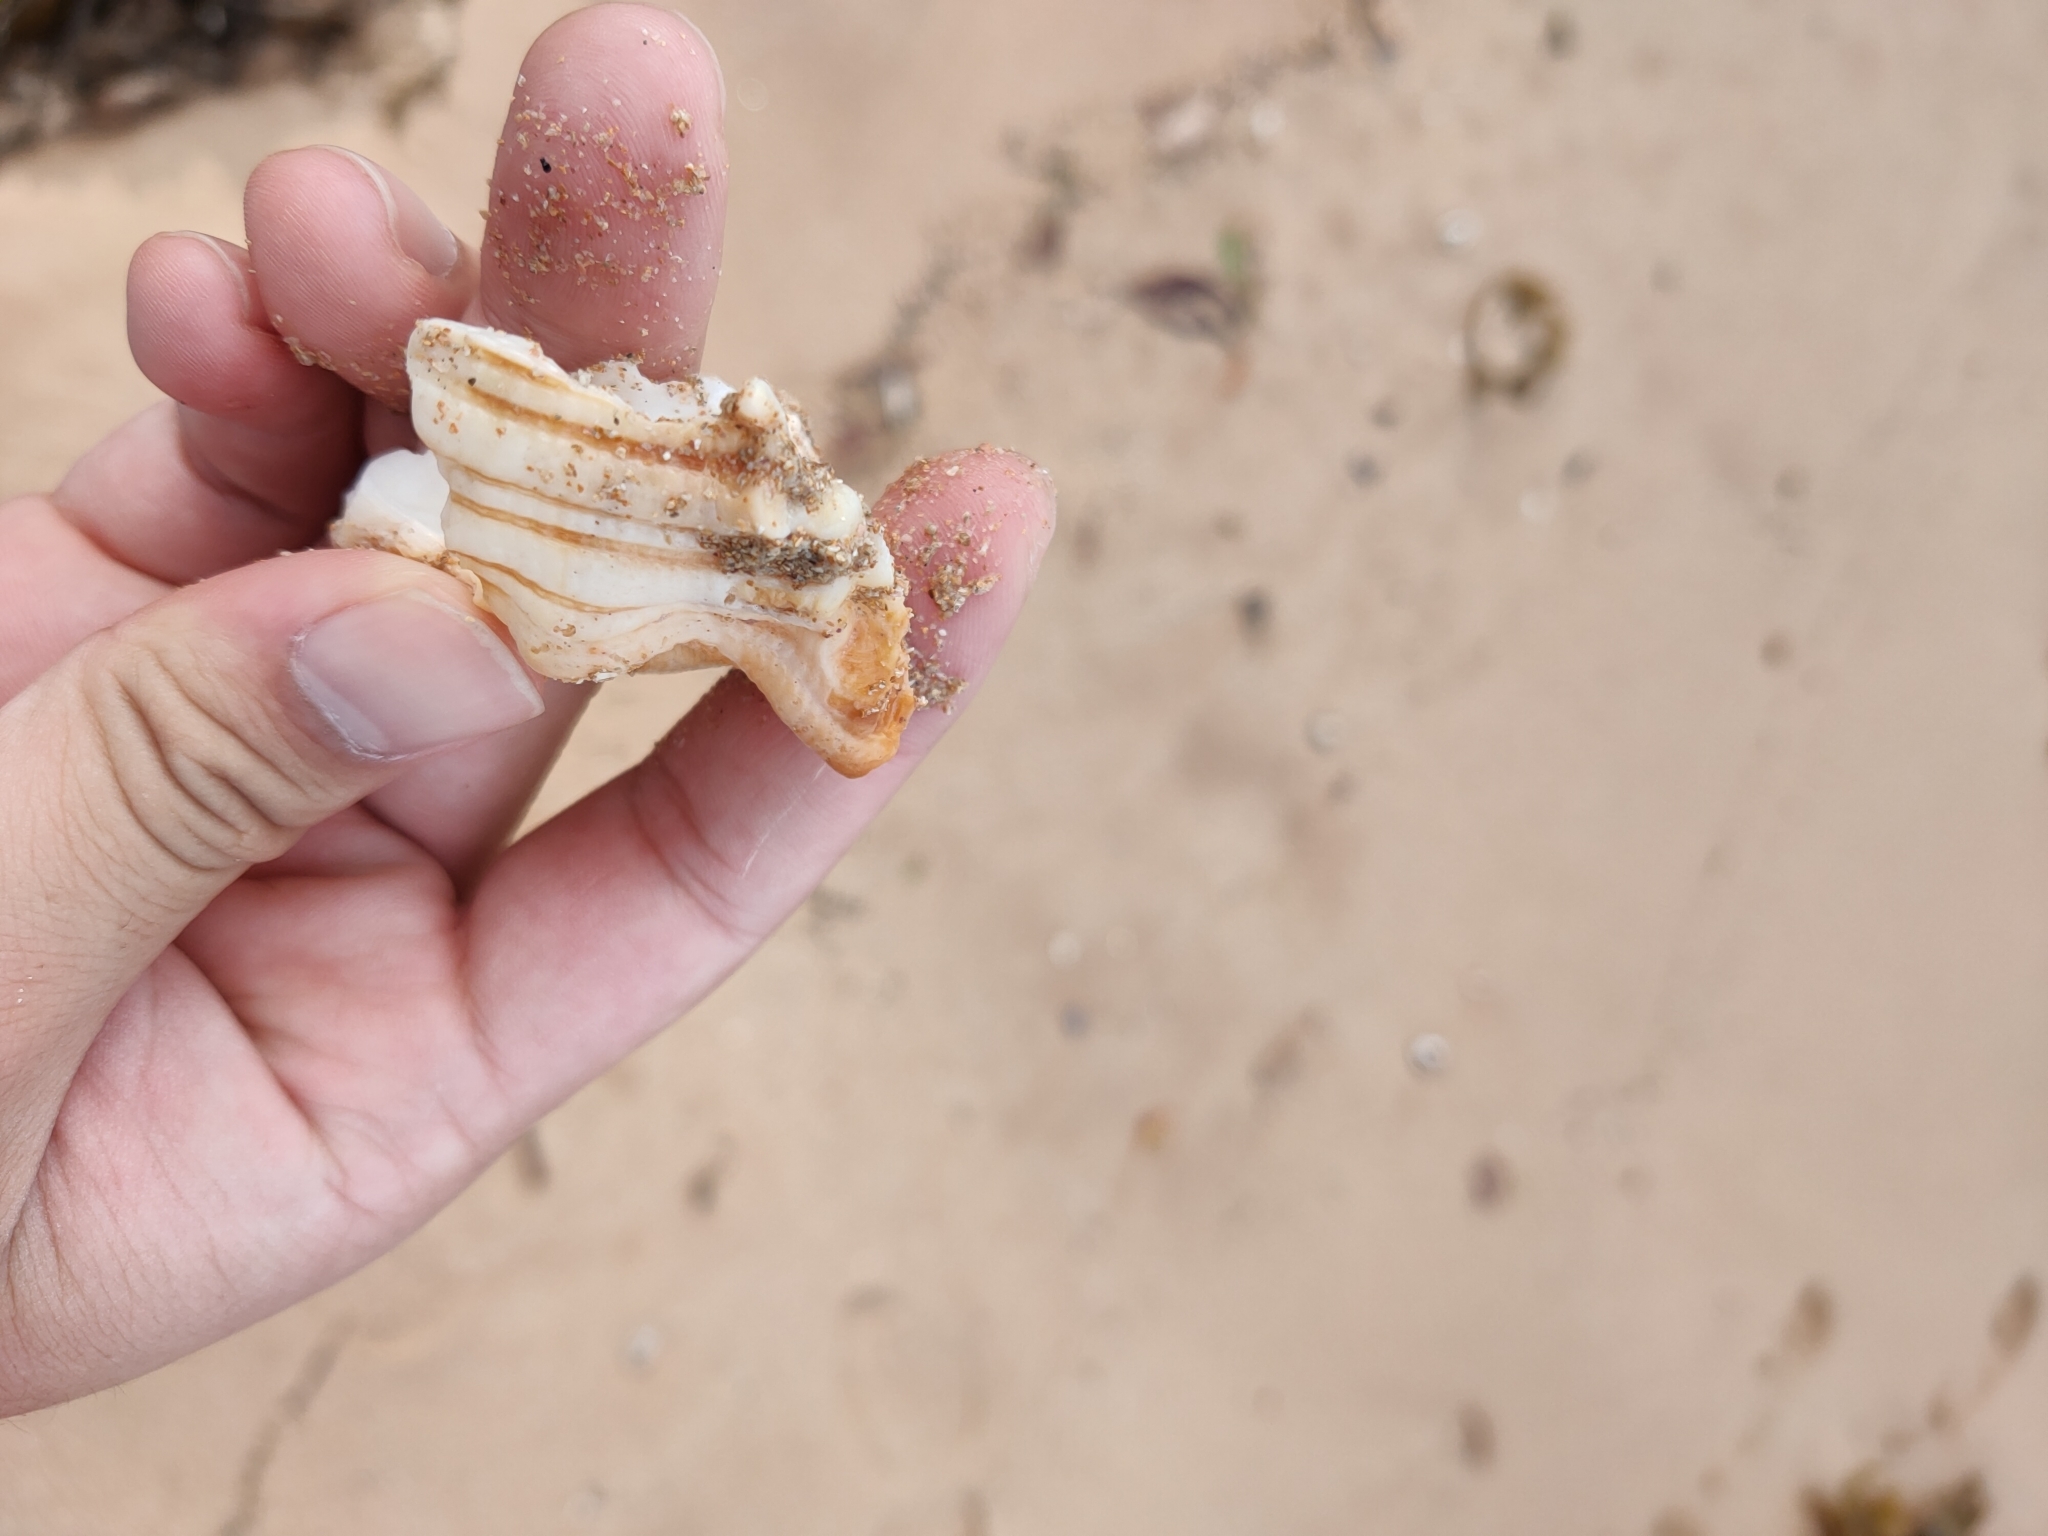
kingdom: Animalia
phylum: Mollusca
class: Gastropoda
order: Littorinimorpha
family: Cymatiidae
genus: Cabestana
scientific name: Cabestana spengleri
